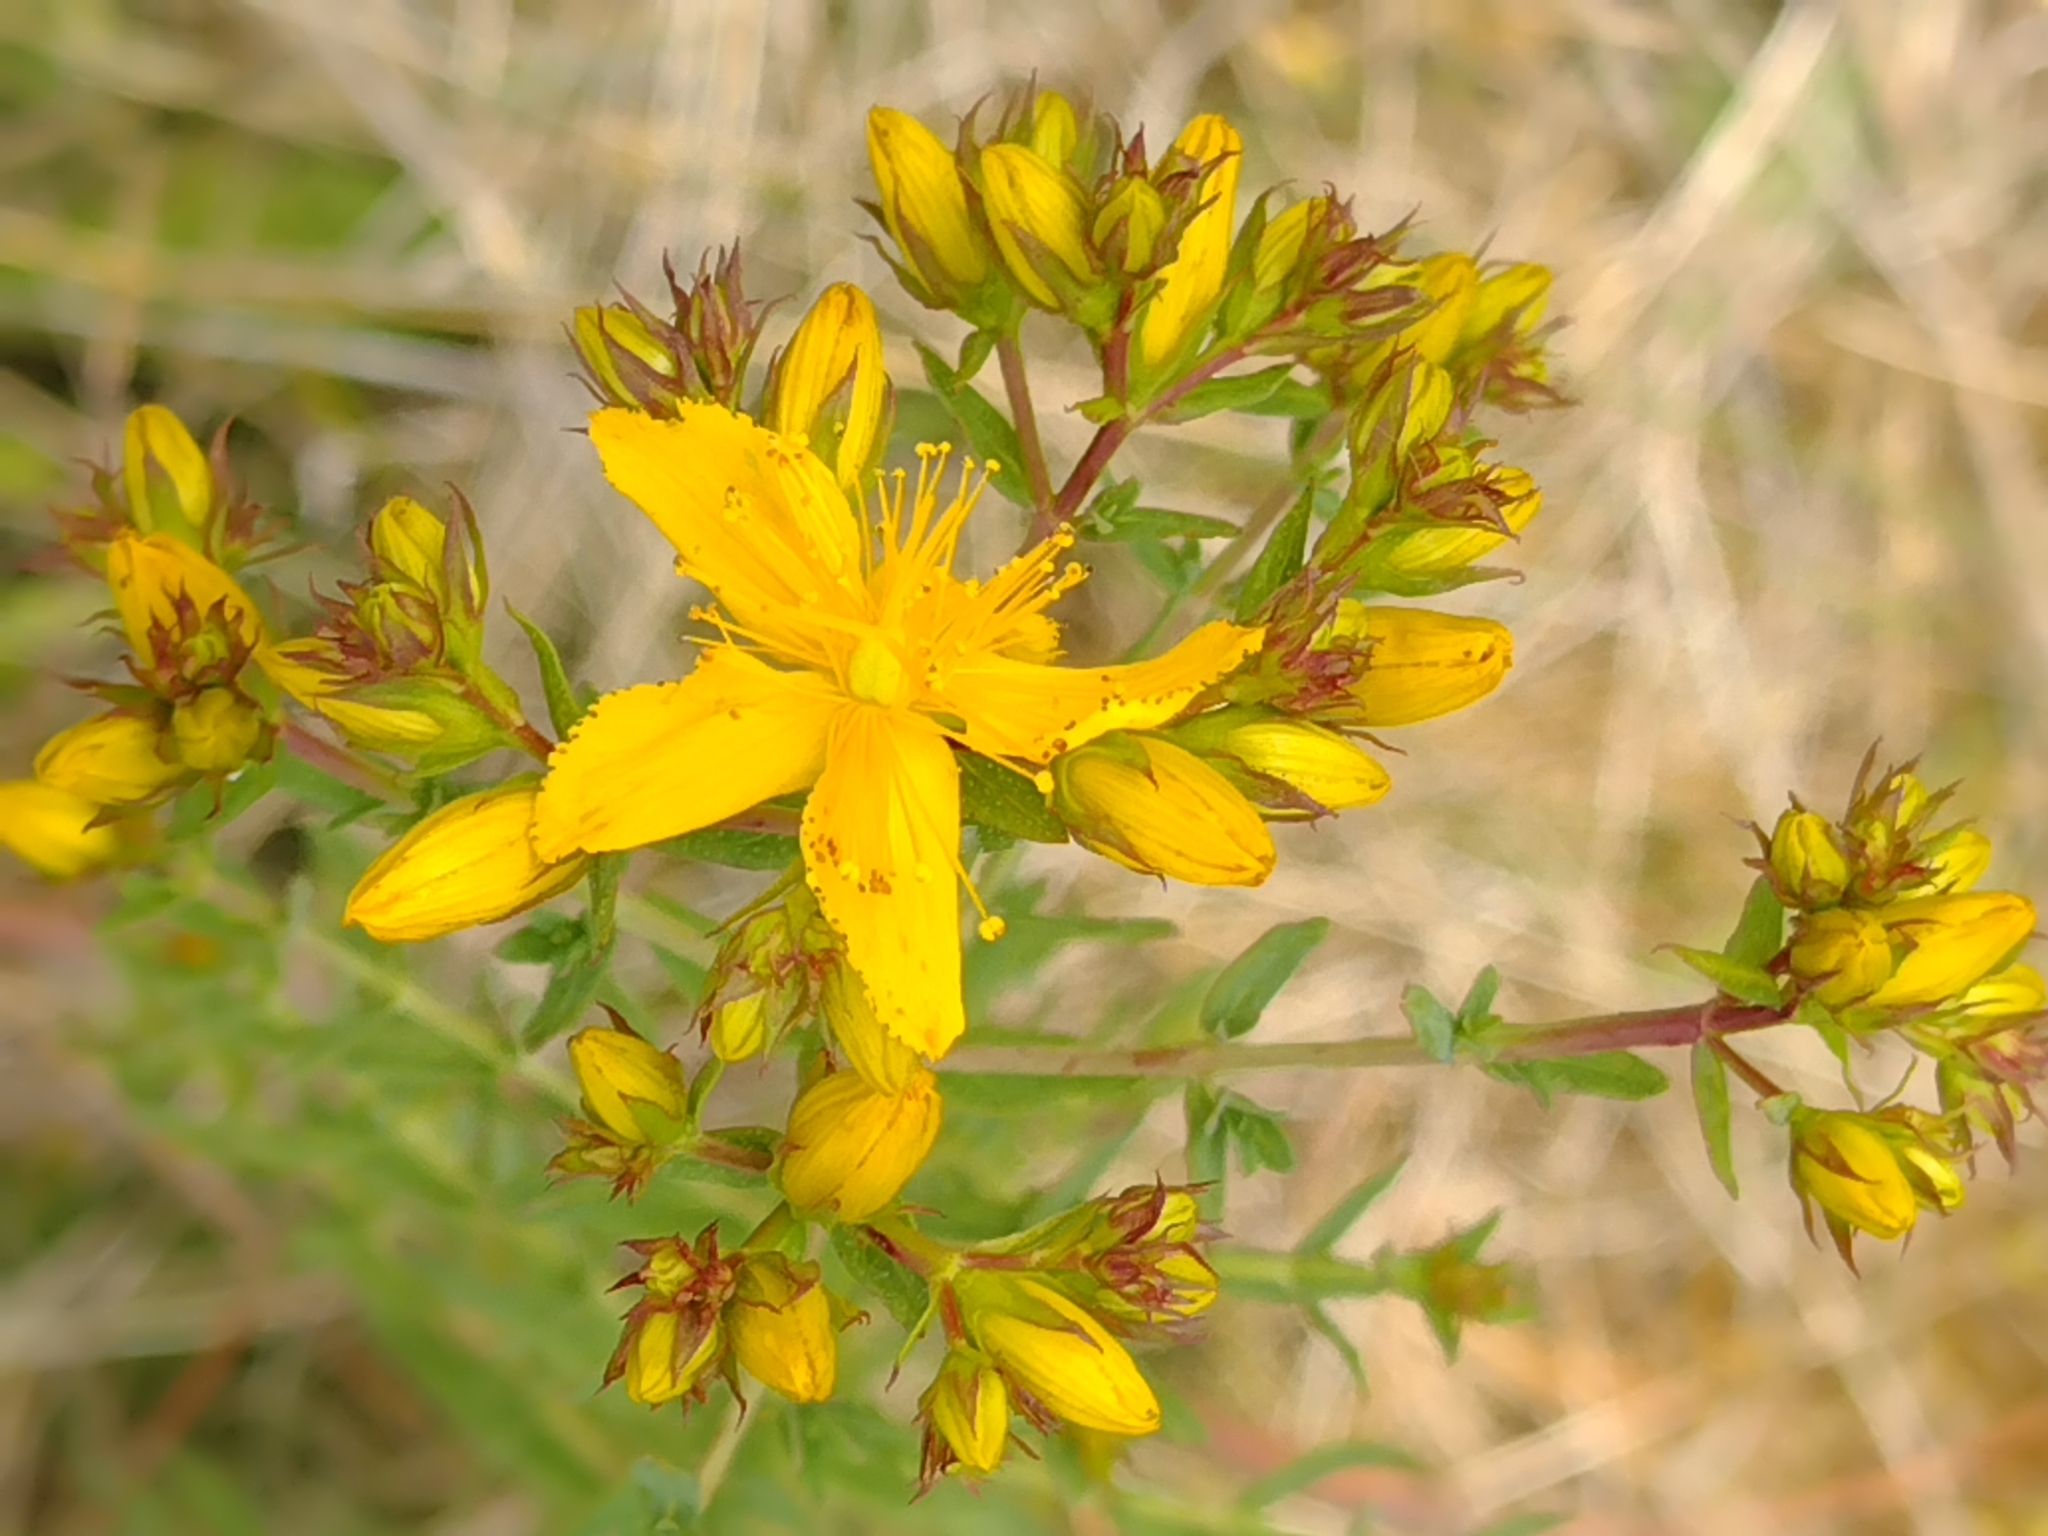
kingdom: Plantae
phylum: Tracheophyta
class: Magnoliopsida
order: Malpighiales
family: Hypericaceae
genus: Hypericum
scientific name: Hypericum perforatum
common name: Common st. johnswort
